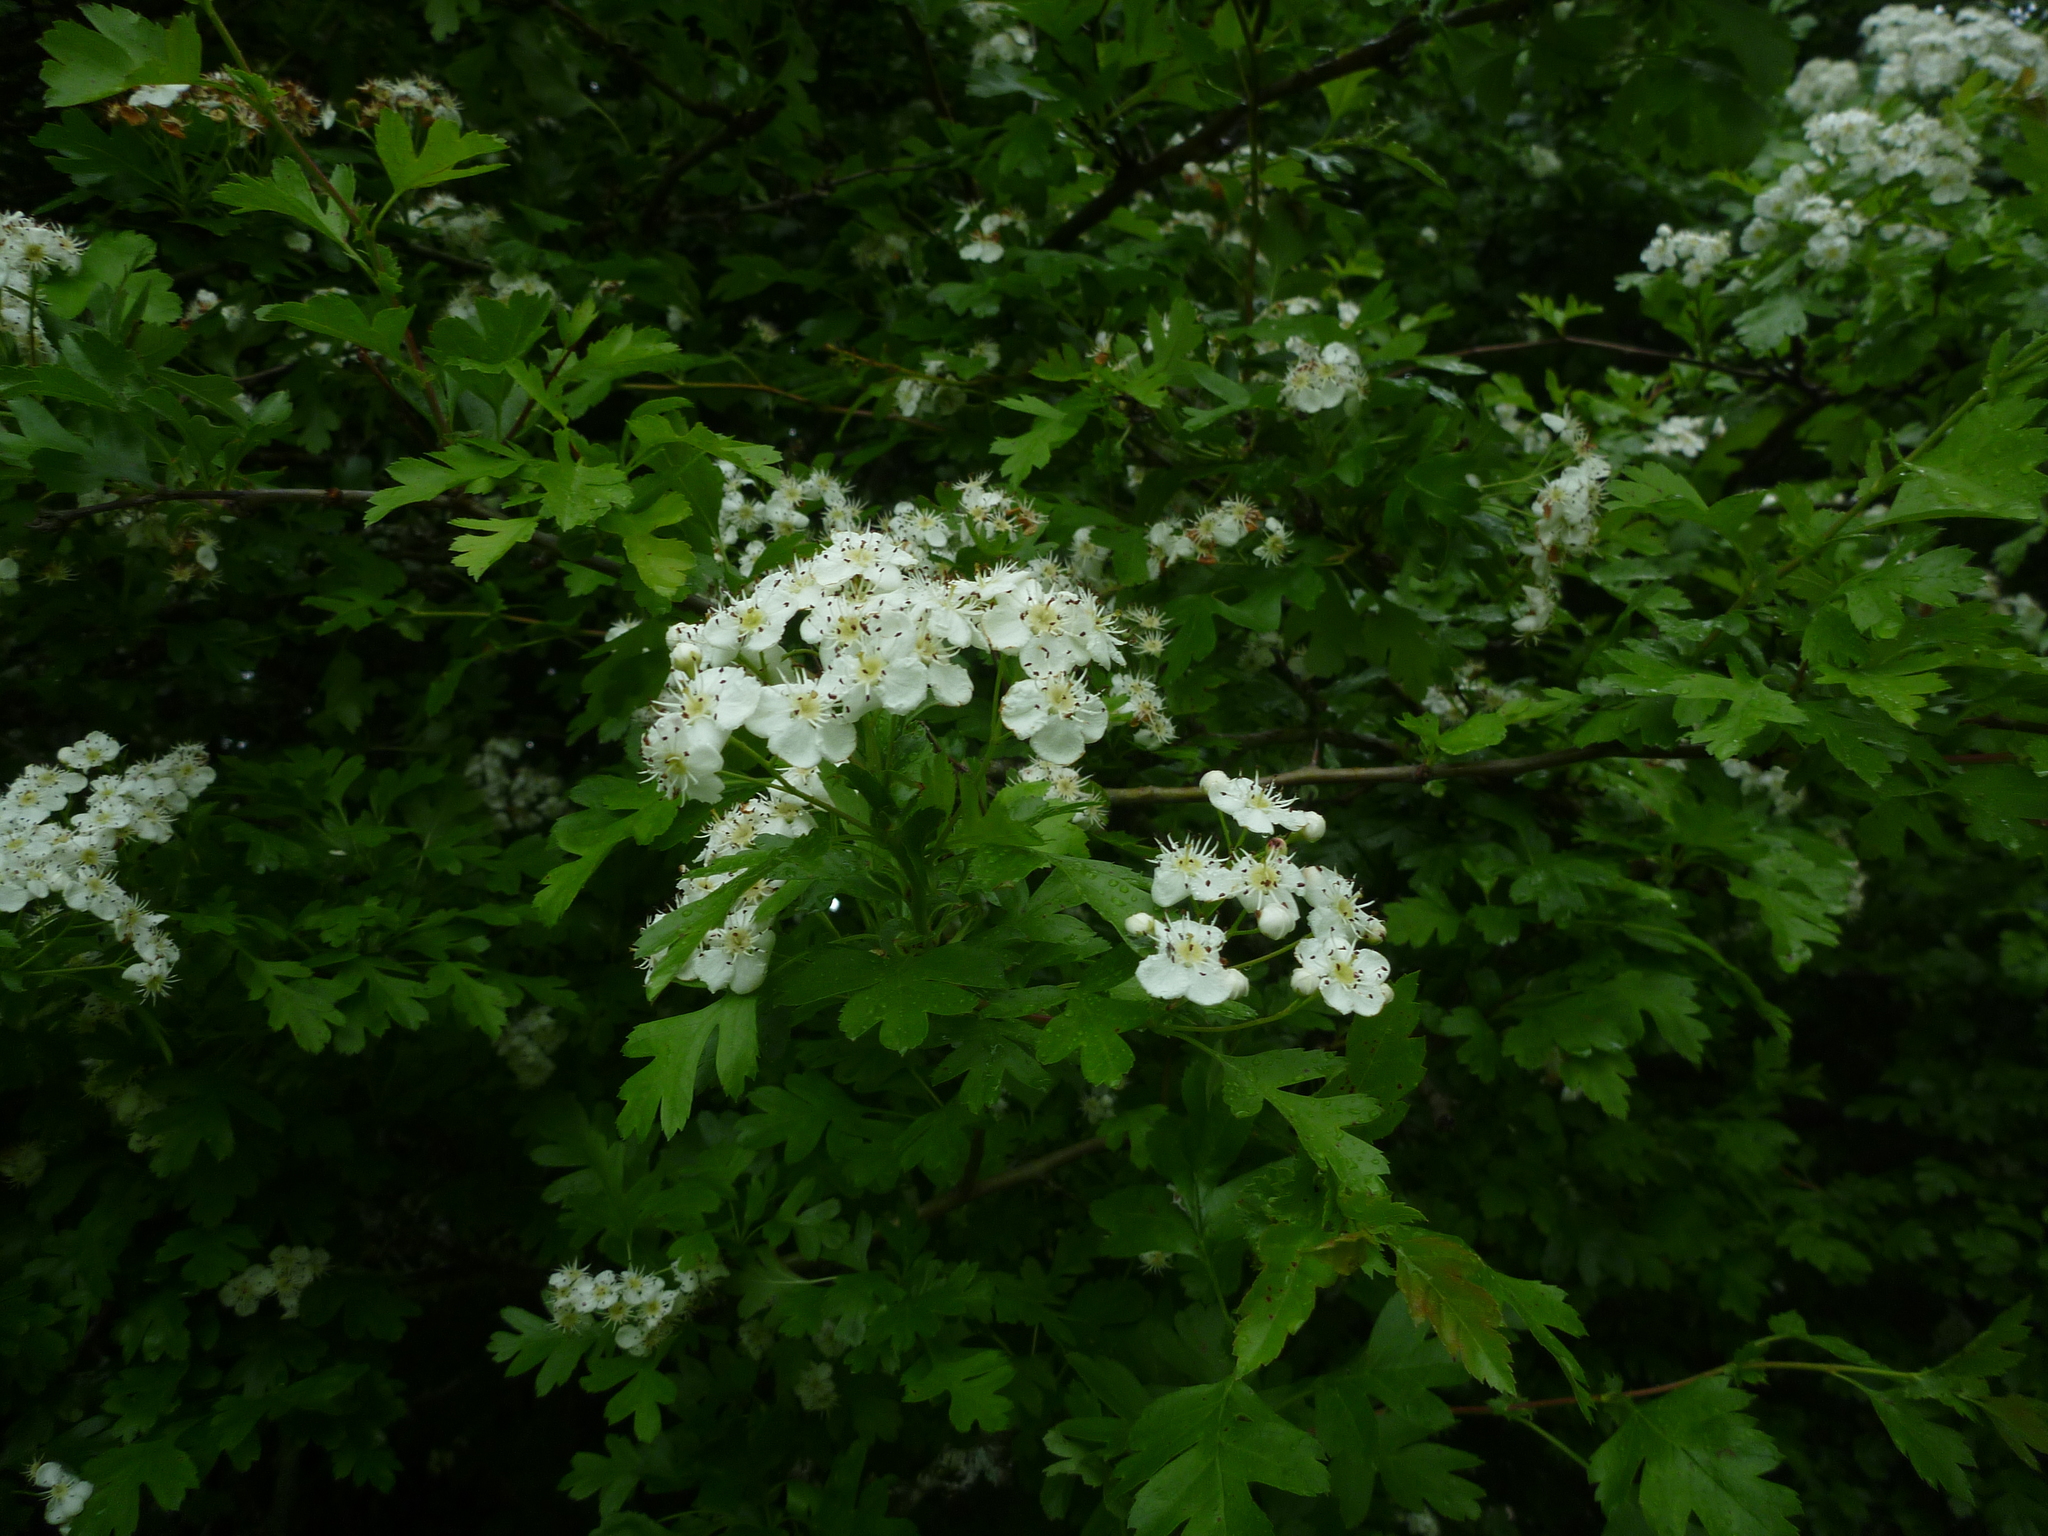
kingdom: Plantae
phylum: Tracheophyta
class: Magnoliopsida
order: Rosales
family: Rosaceae
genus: Crataegus
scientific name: Crataegus monogyna
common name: Hawthorn
